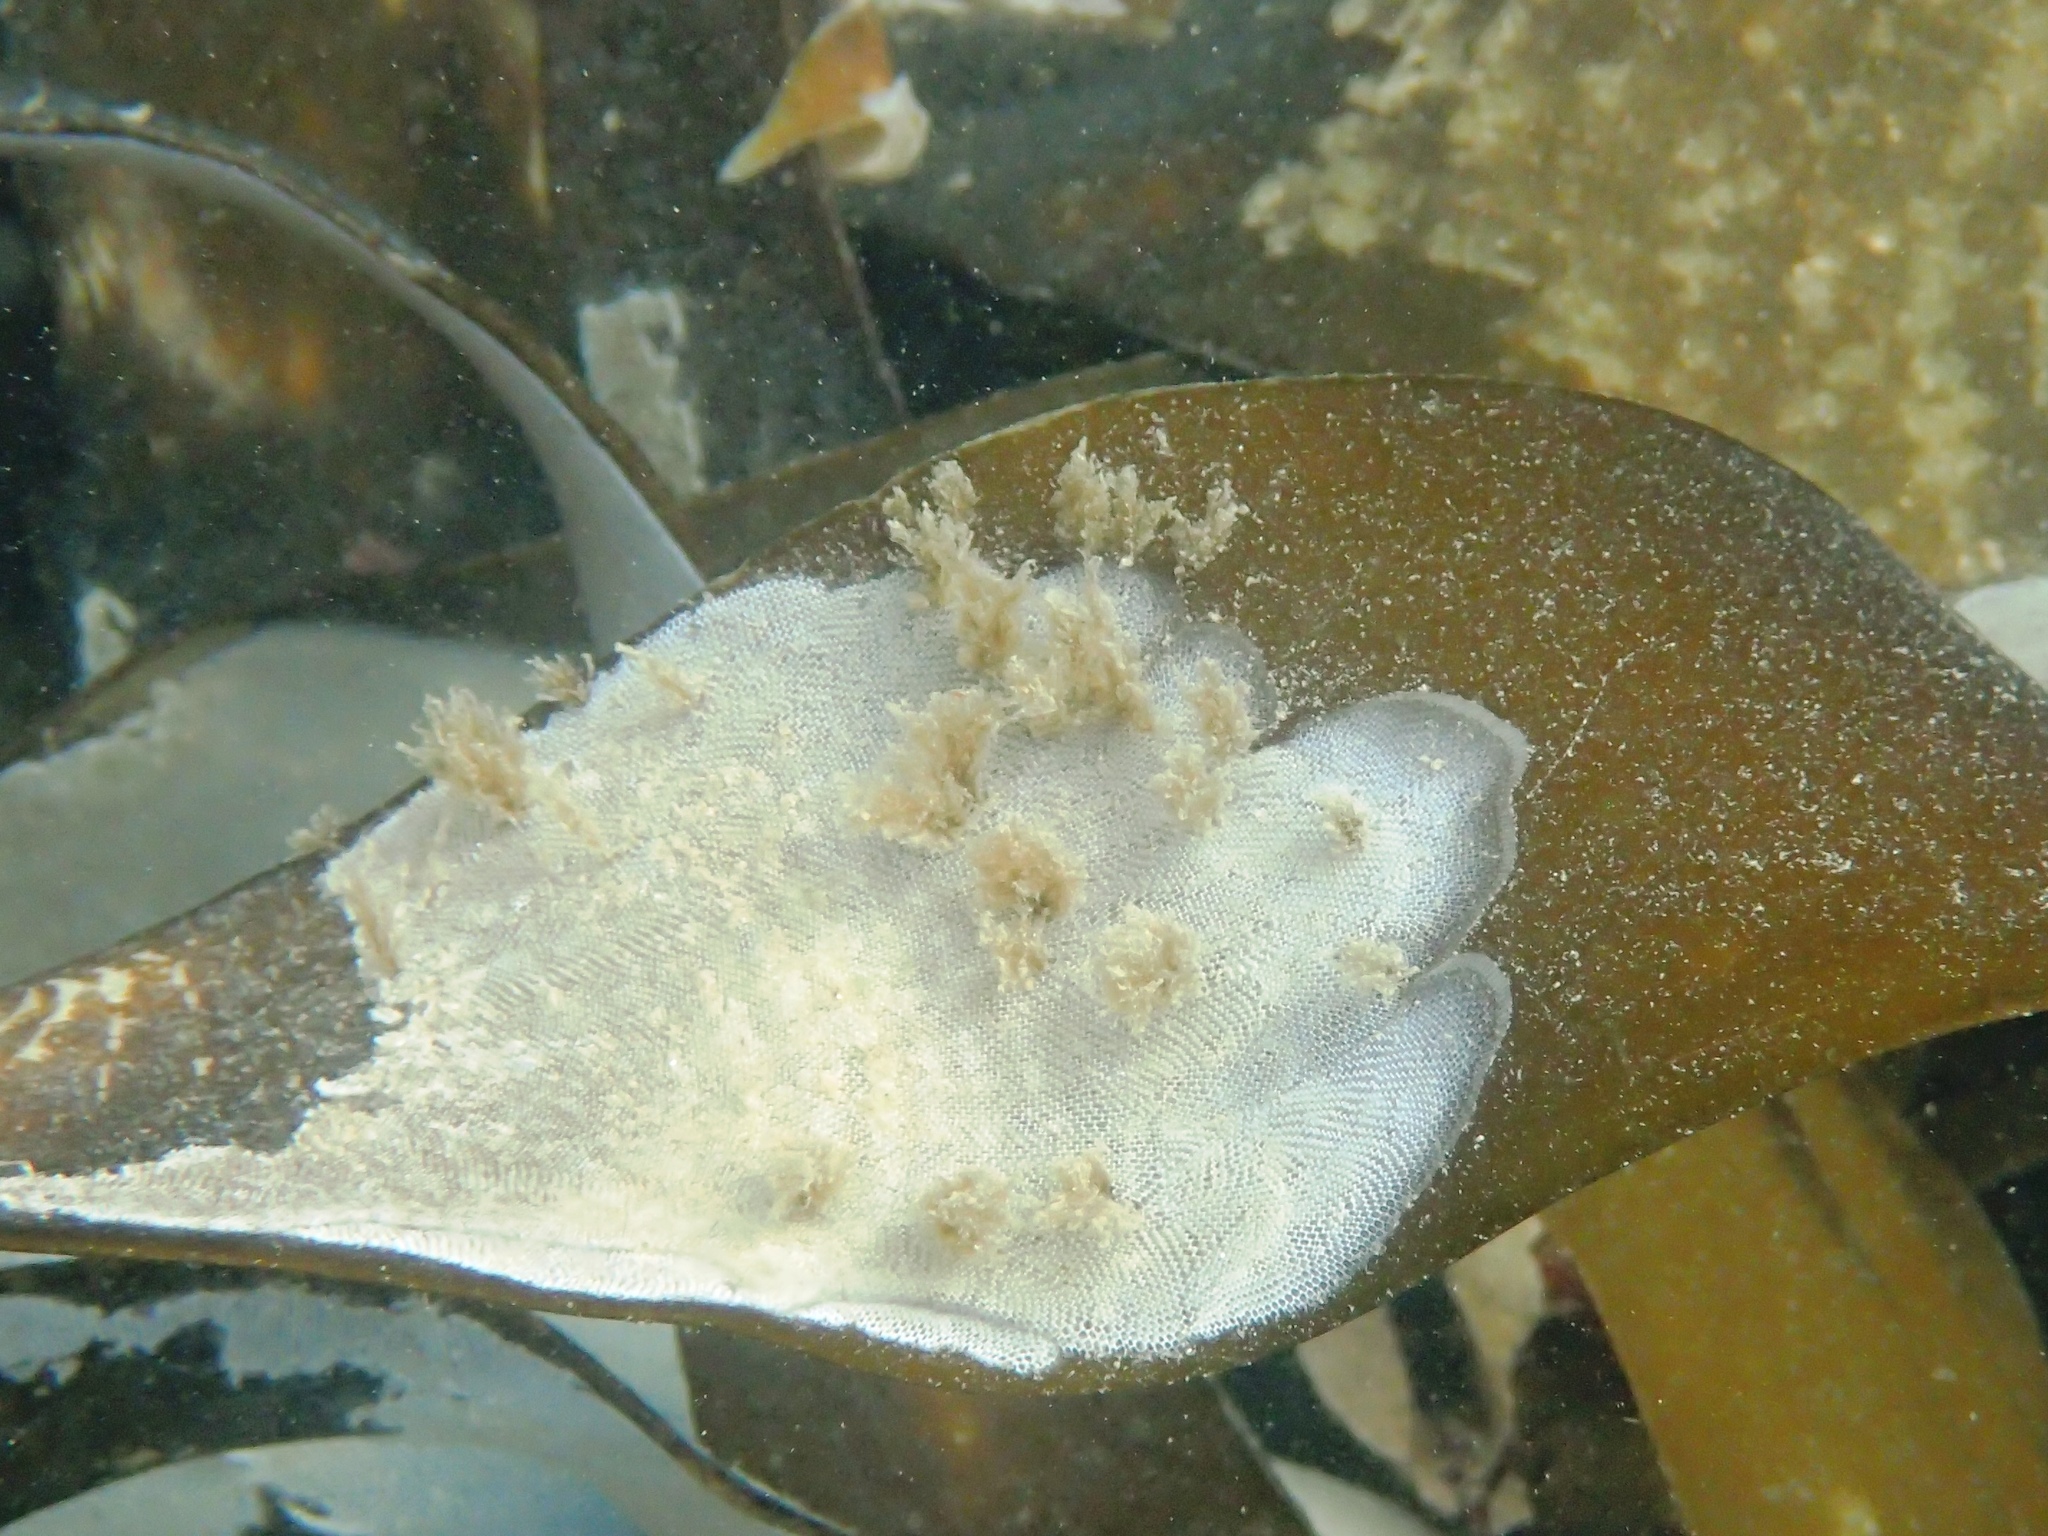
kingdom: Animalia
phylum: Bryozoa
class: Gymnolaemata
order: Cheilostomatida
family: Membraniporidae
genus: Membranipora
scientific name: Membranipora membranacea
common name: Sea mat
